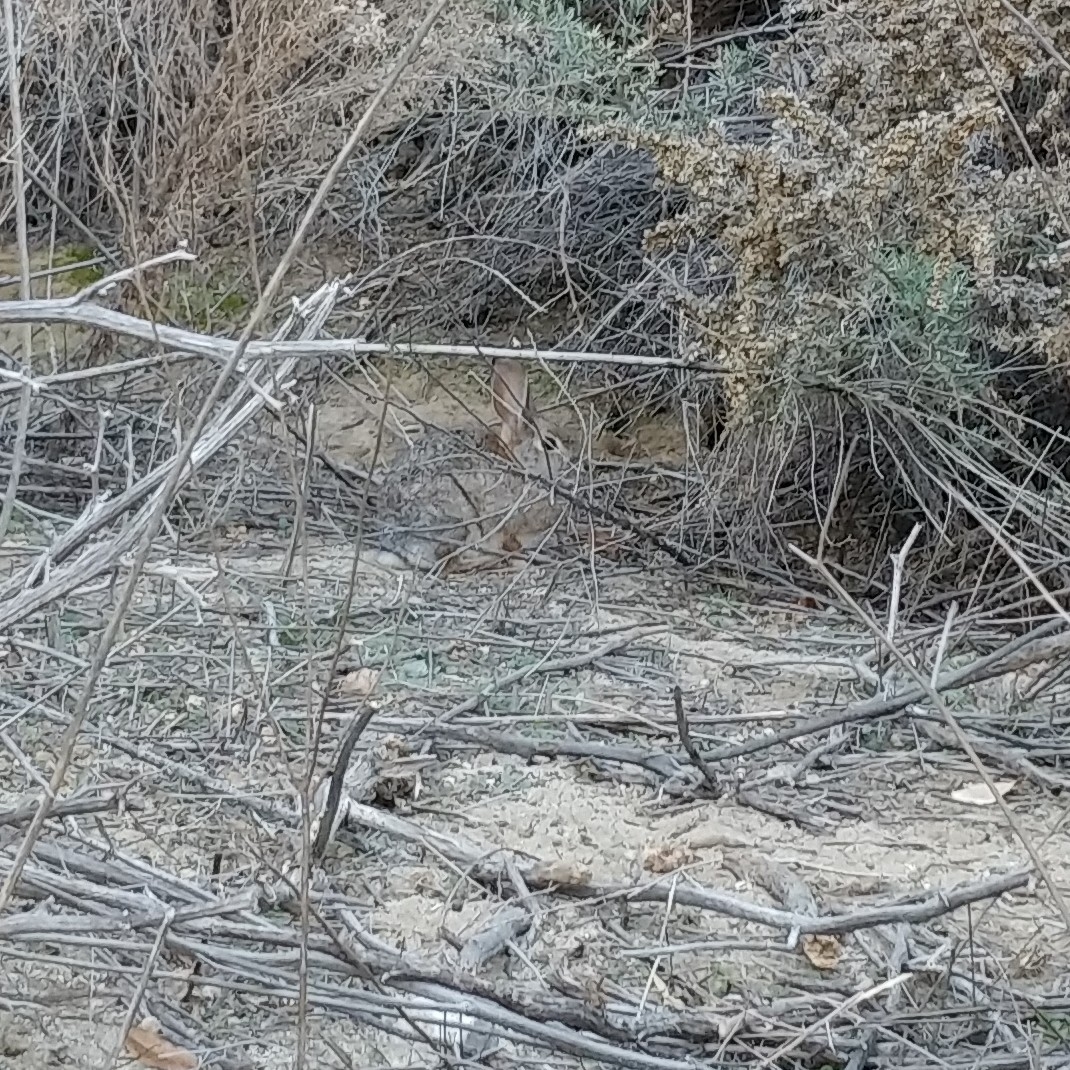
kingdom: Animalia
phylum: Chordata
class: Mammalia
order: Lagomorpha
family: Leporidae
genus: Sylvilagus
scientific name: Sylvilagus audubonii
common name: Desert cottontail
